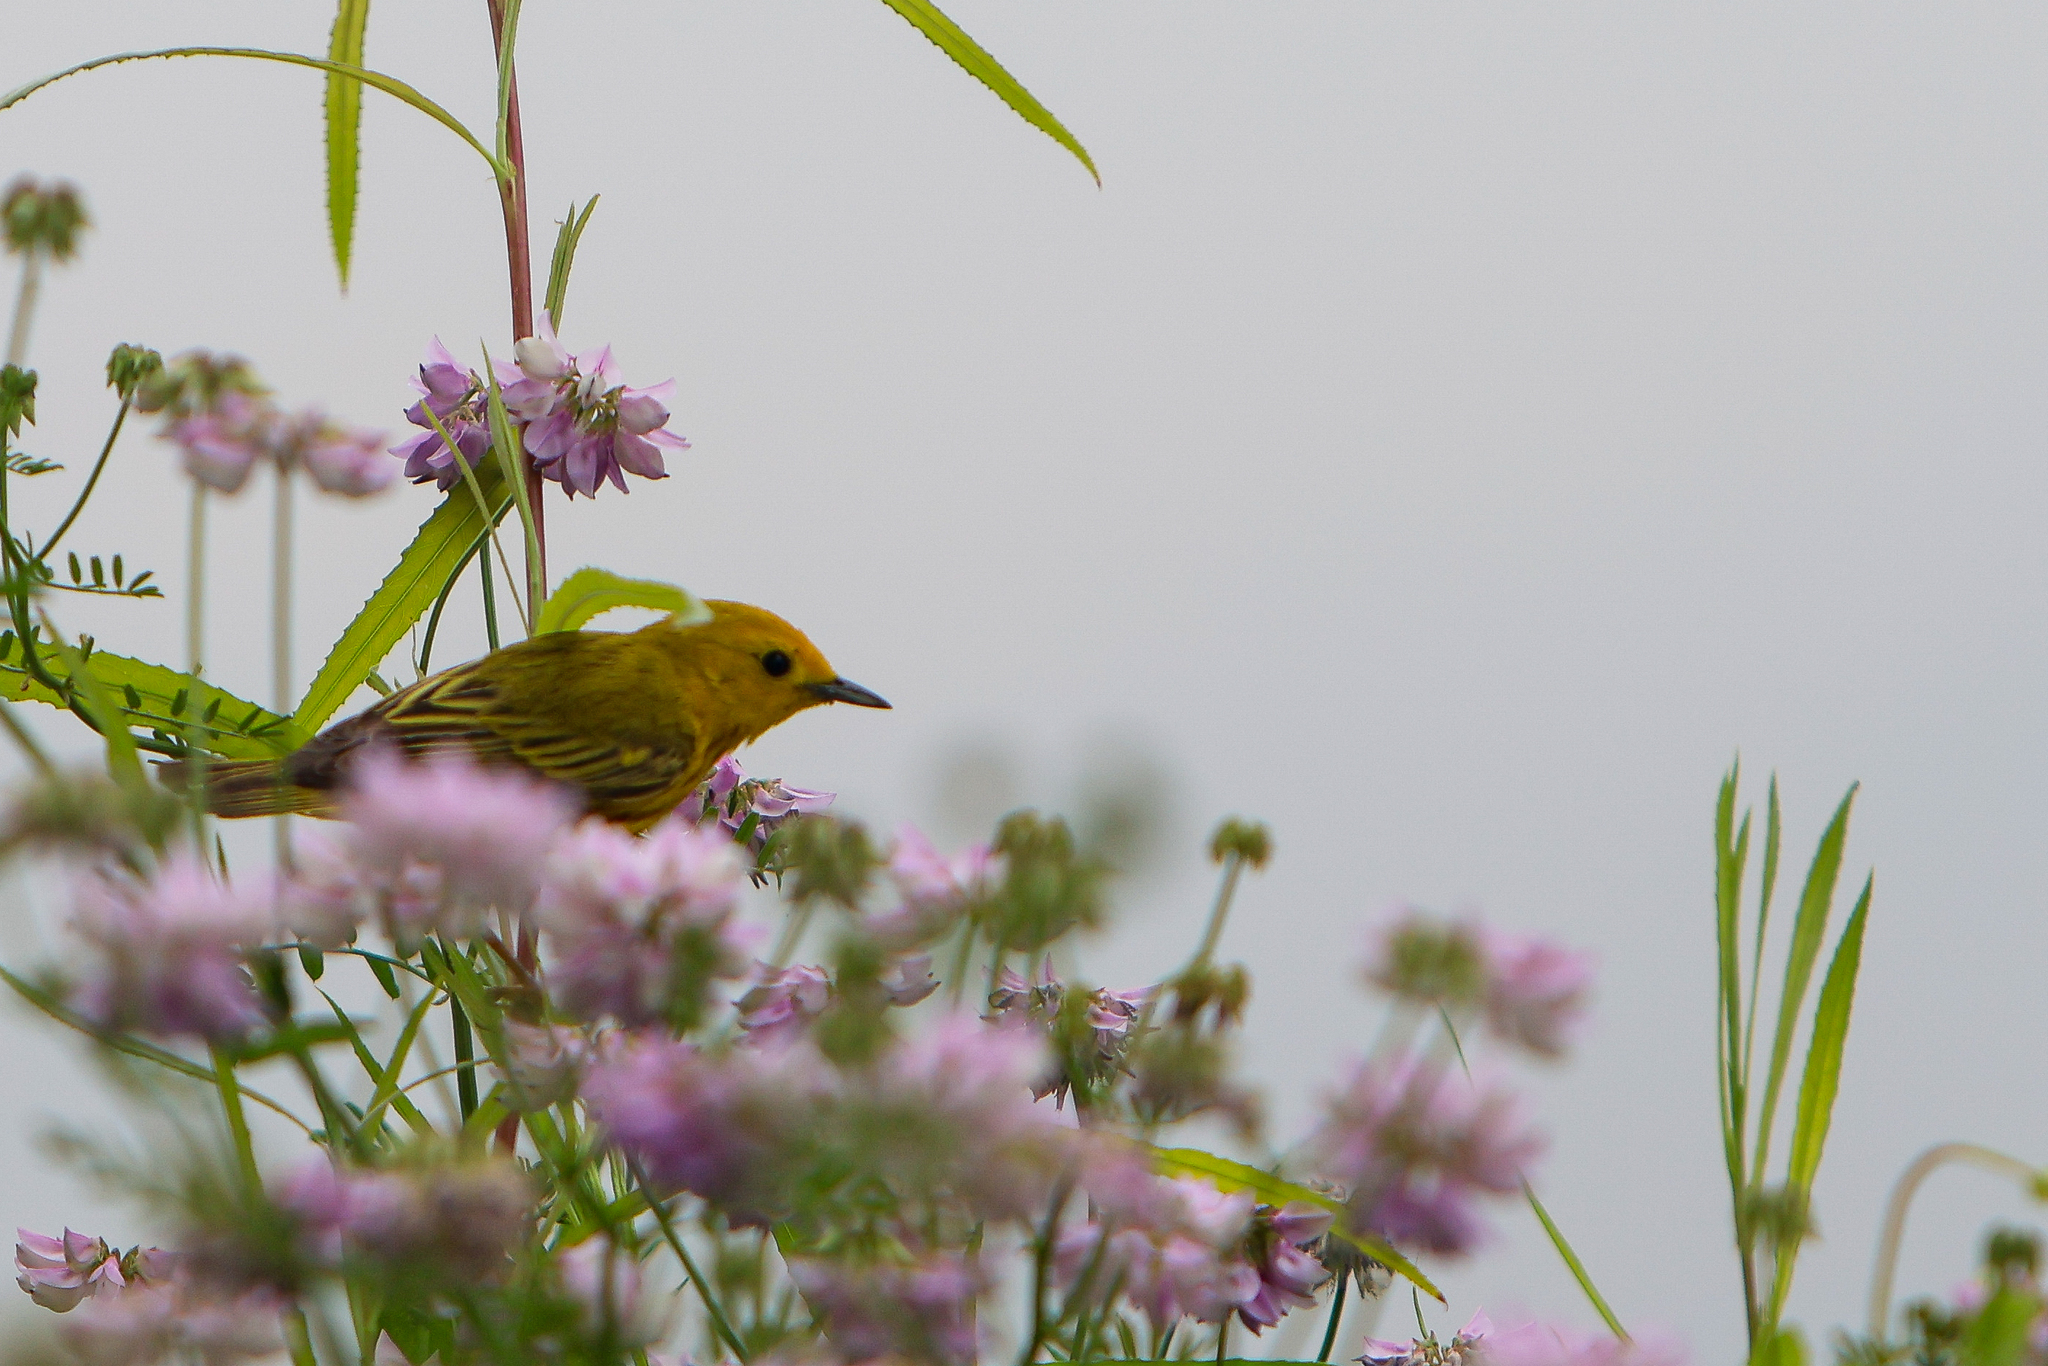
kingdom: Animalia
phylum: Chordata
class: Aves
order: Passeriformes
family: Parulidae
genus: Setophaga
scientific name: Setophaga petechia
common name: Yellow warbler
